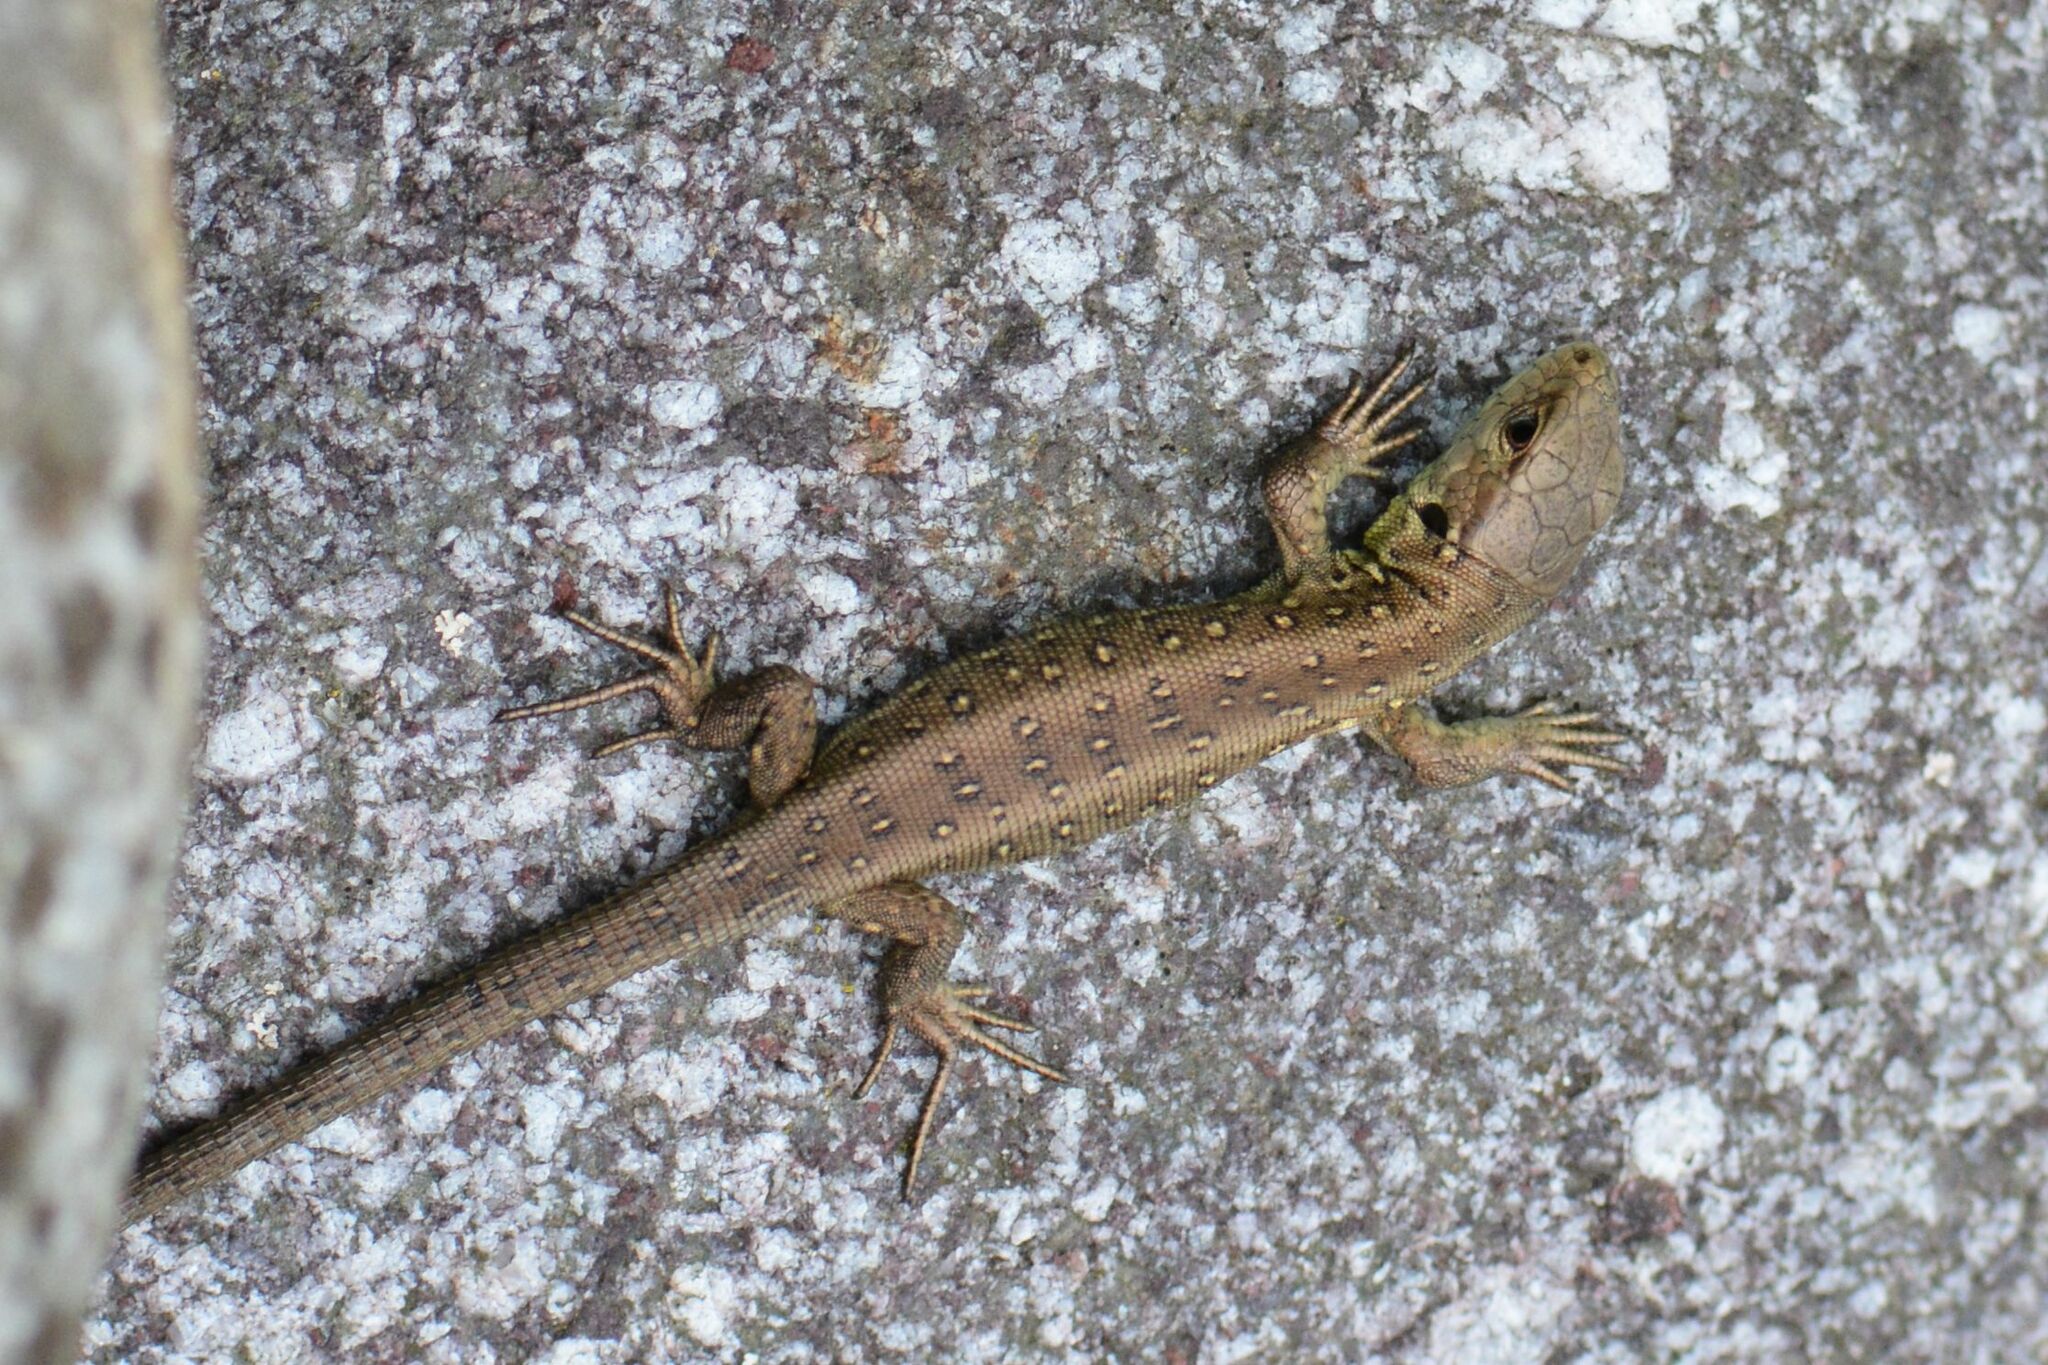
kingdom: Animalia
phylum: Chordata
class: Squamata
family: Lacertidae
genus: Lacerta
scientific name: Lacerta agilis
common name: Sand lizard
